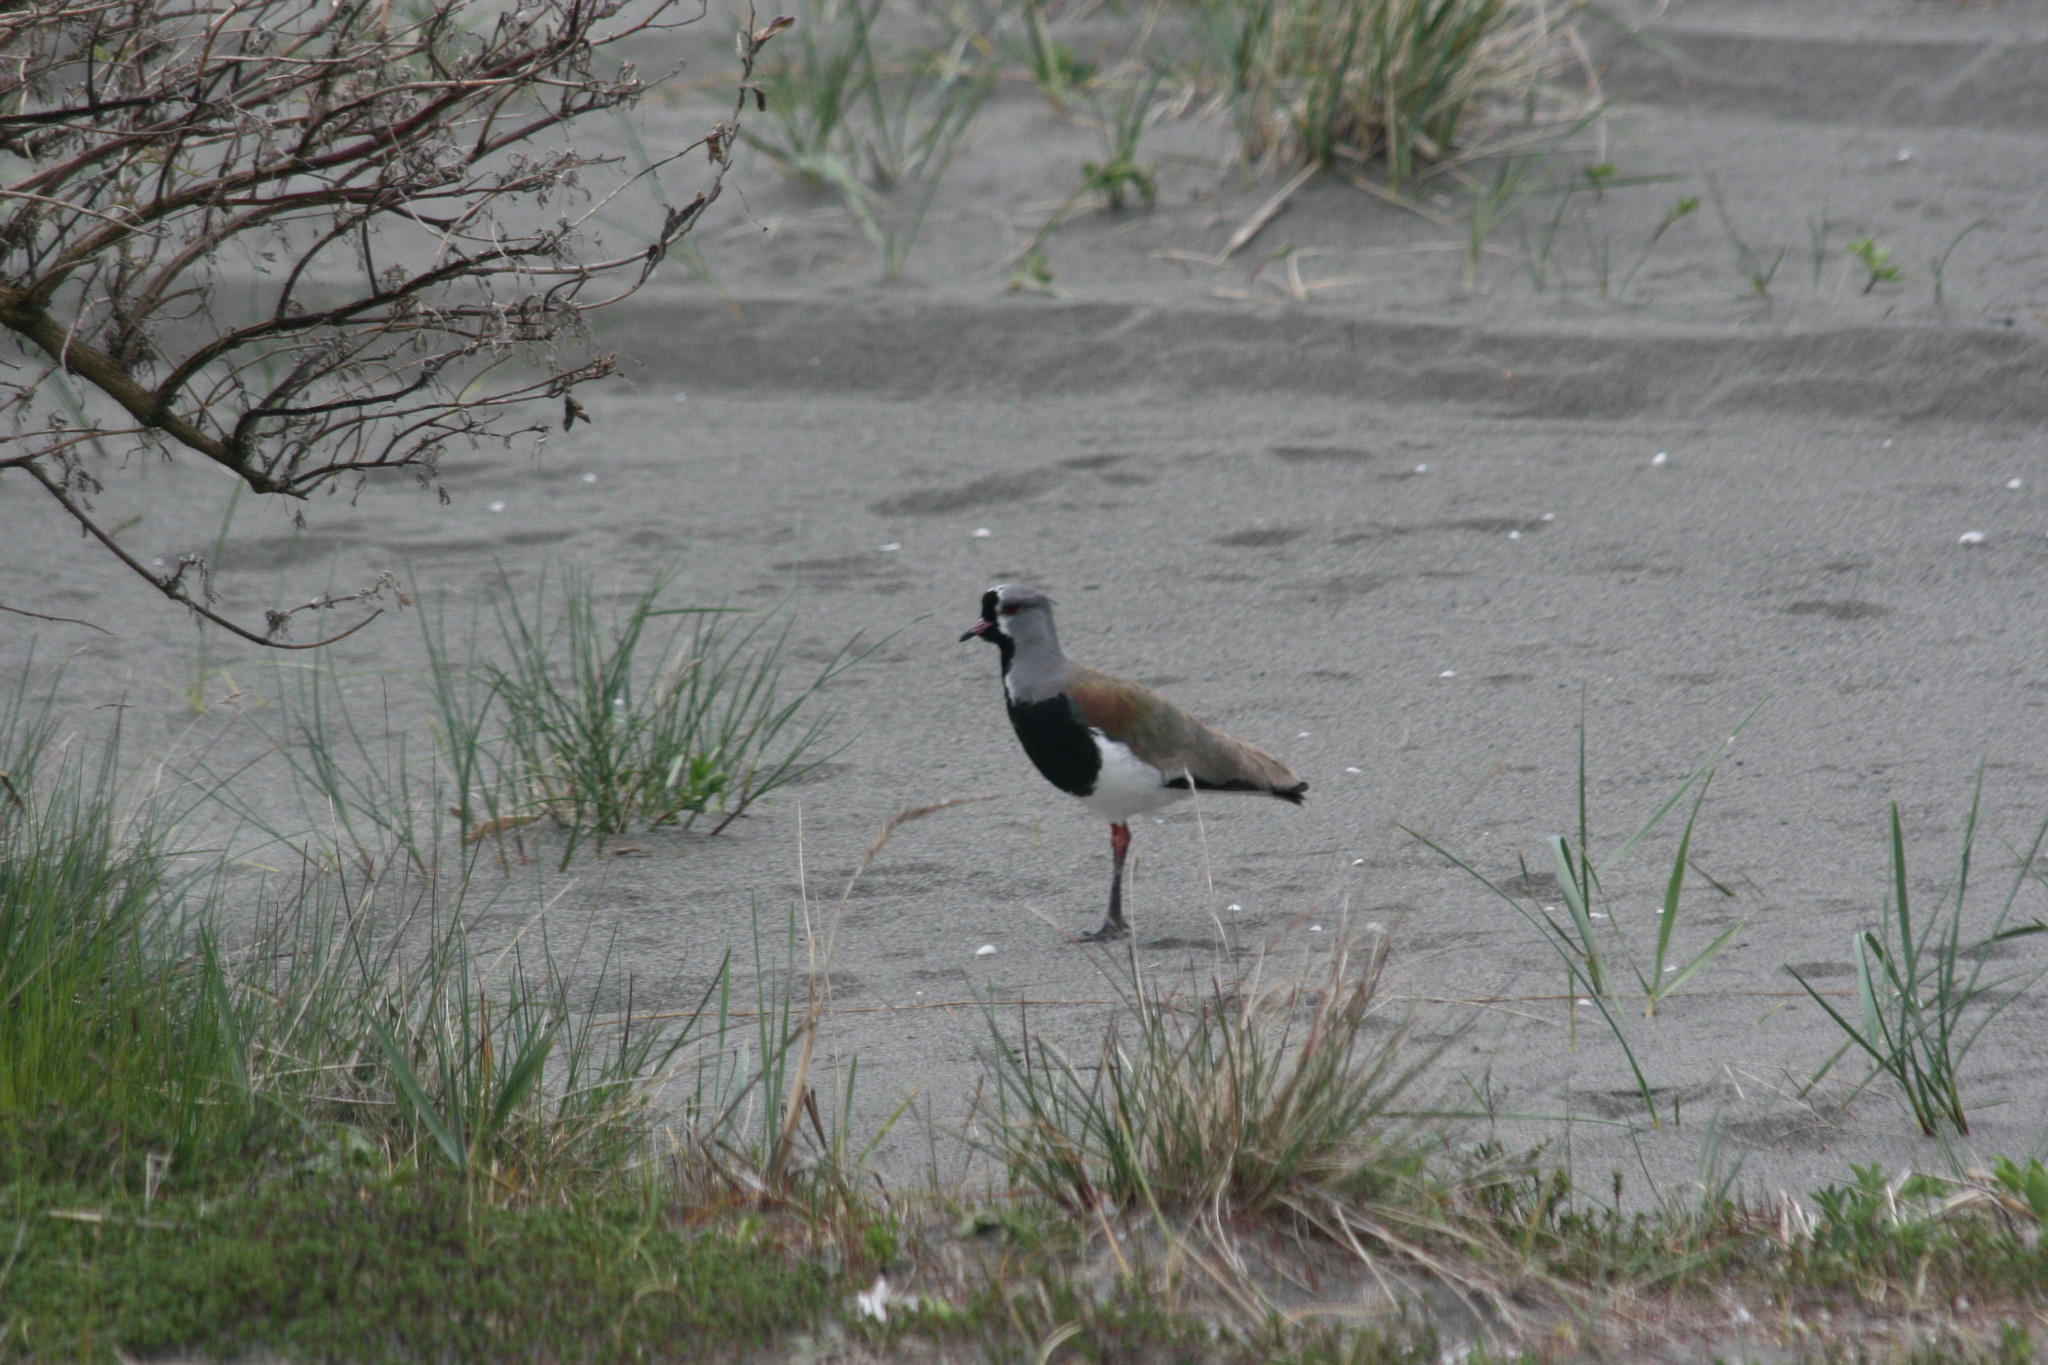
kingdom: Animalia
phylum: Chordata
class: Aves
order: Charadriiformes
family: Charadriidae
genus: Vanellus
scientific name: Vanellus chilensis
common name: Southern lapwing
